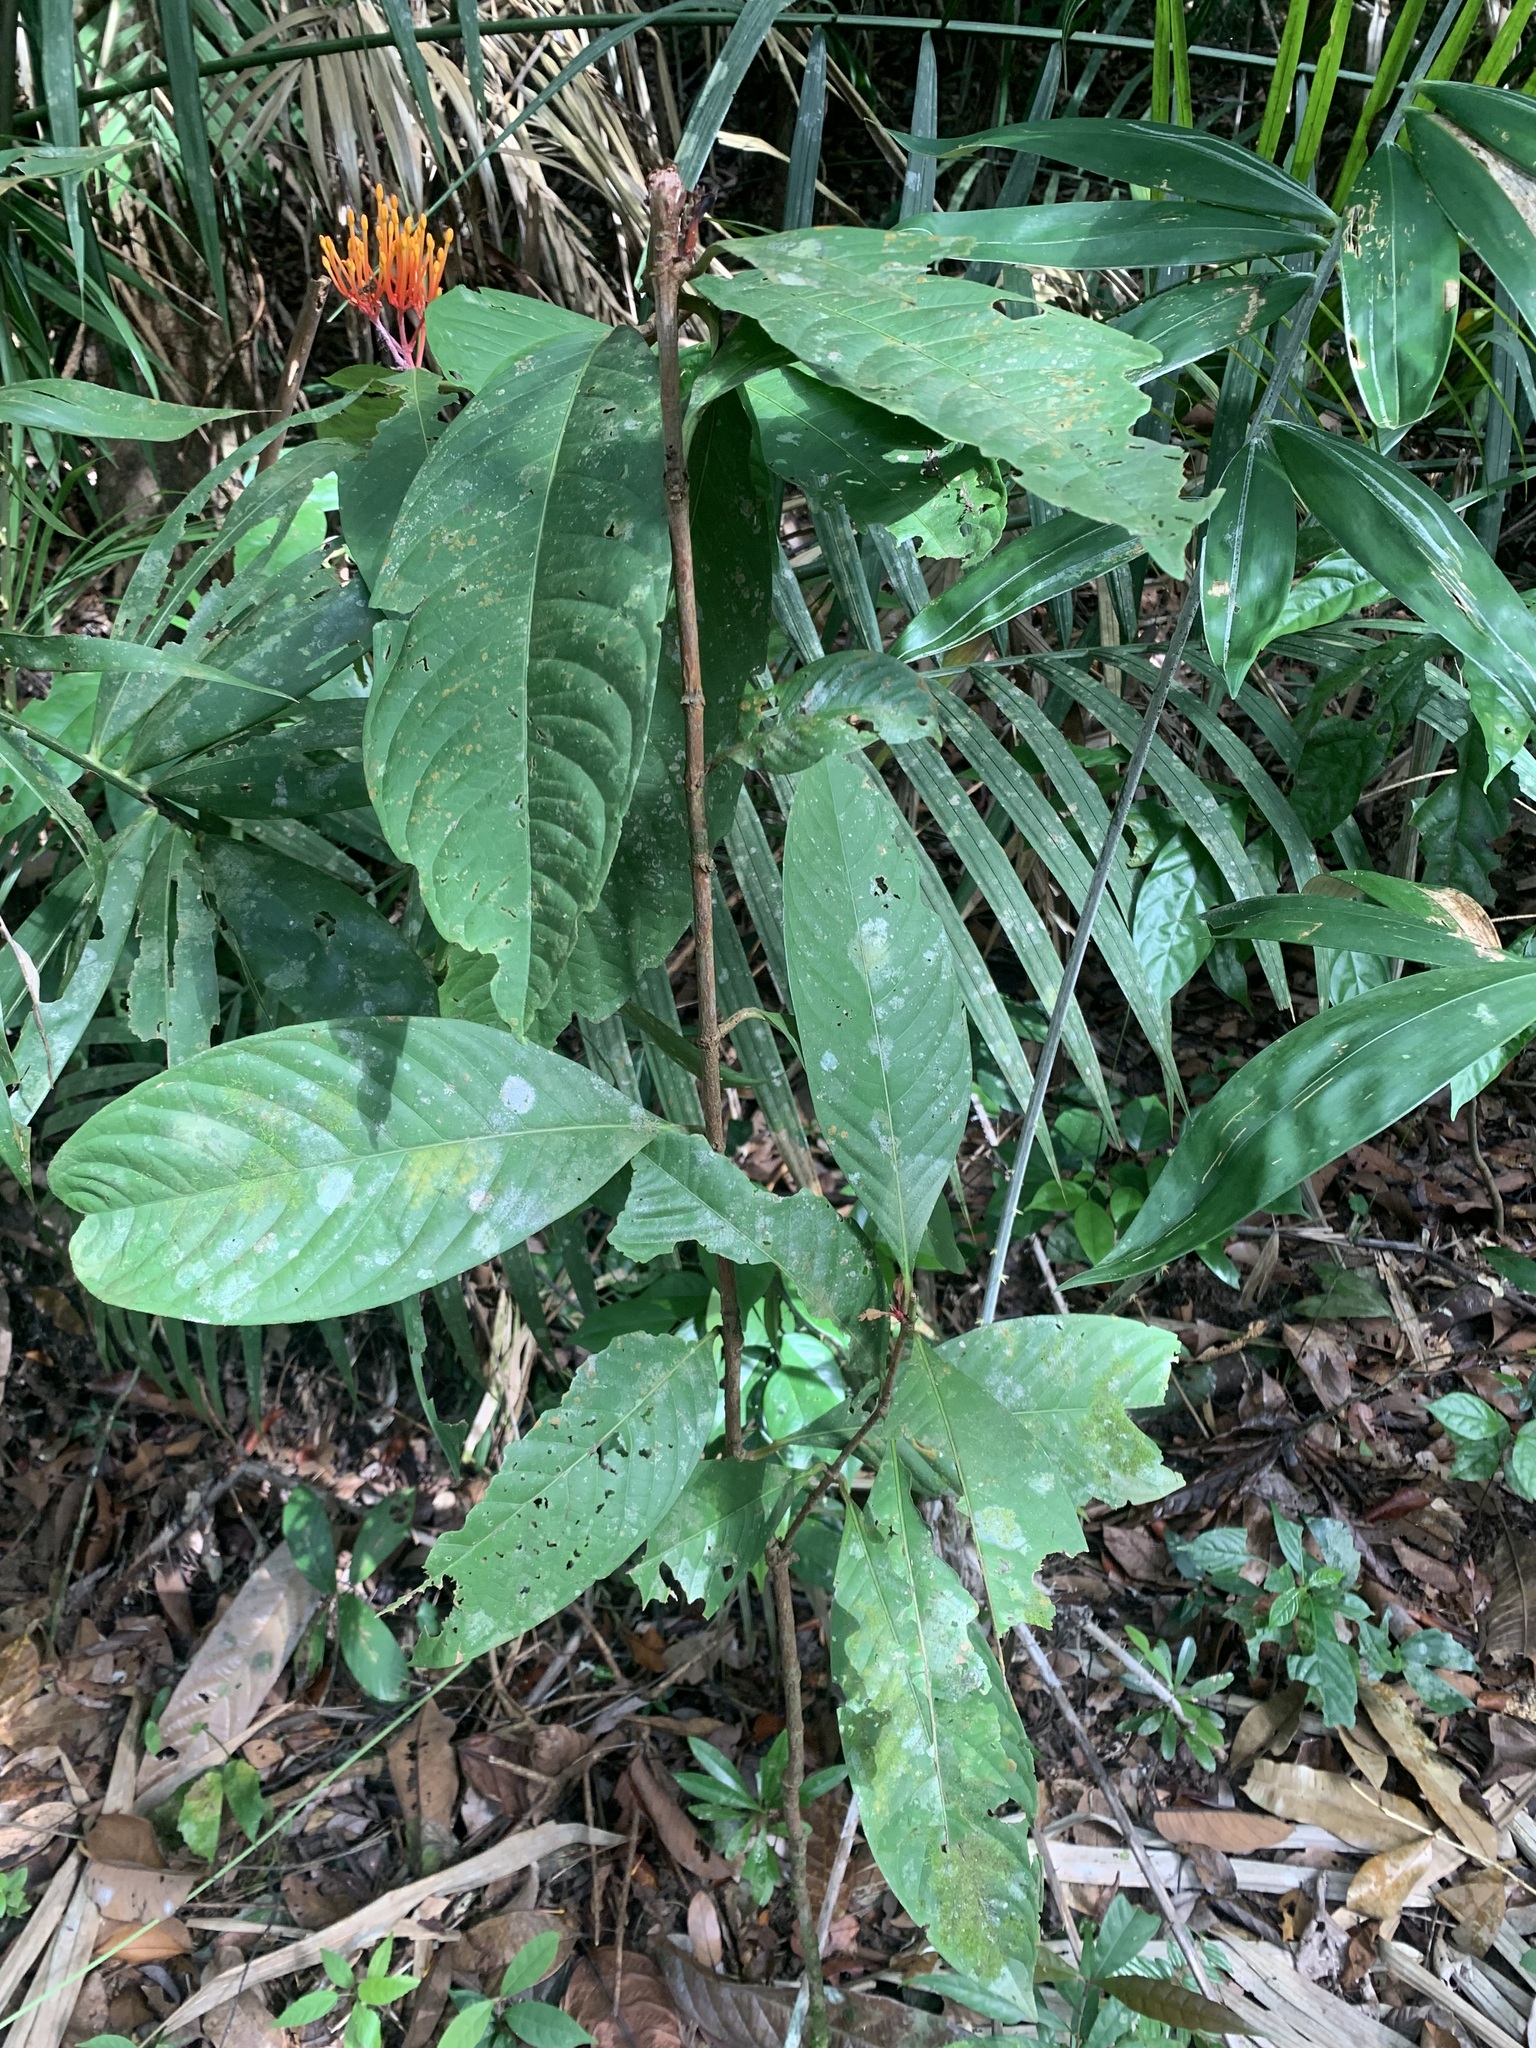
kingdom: Plantae
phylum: Tracheophyta
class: Magnoliopsida
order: Gentianales
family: Rubiaceae
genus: Ixora
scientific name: Ixora congesta
